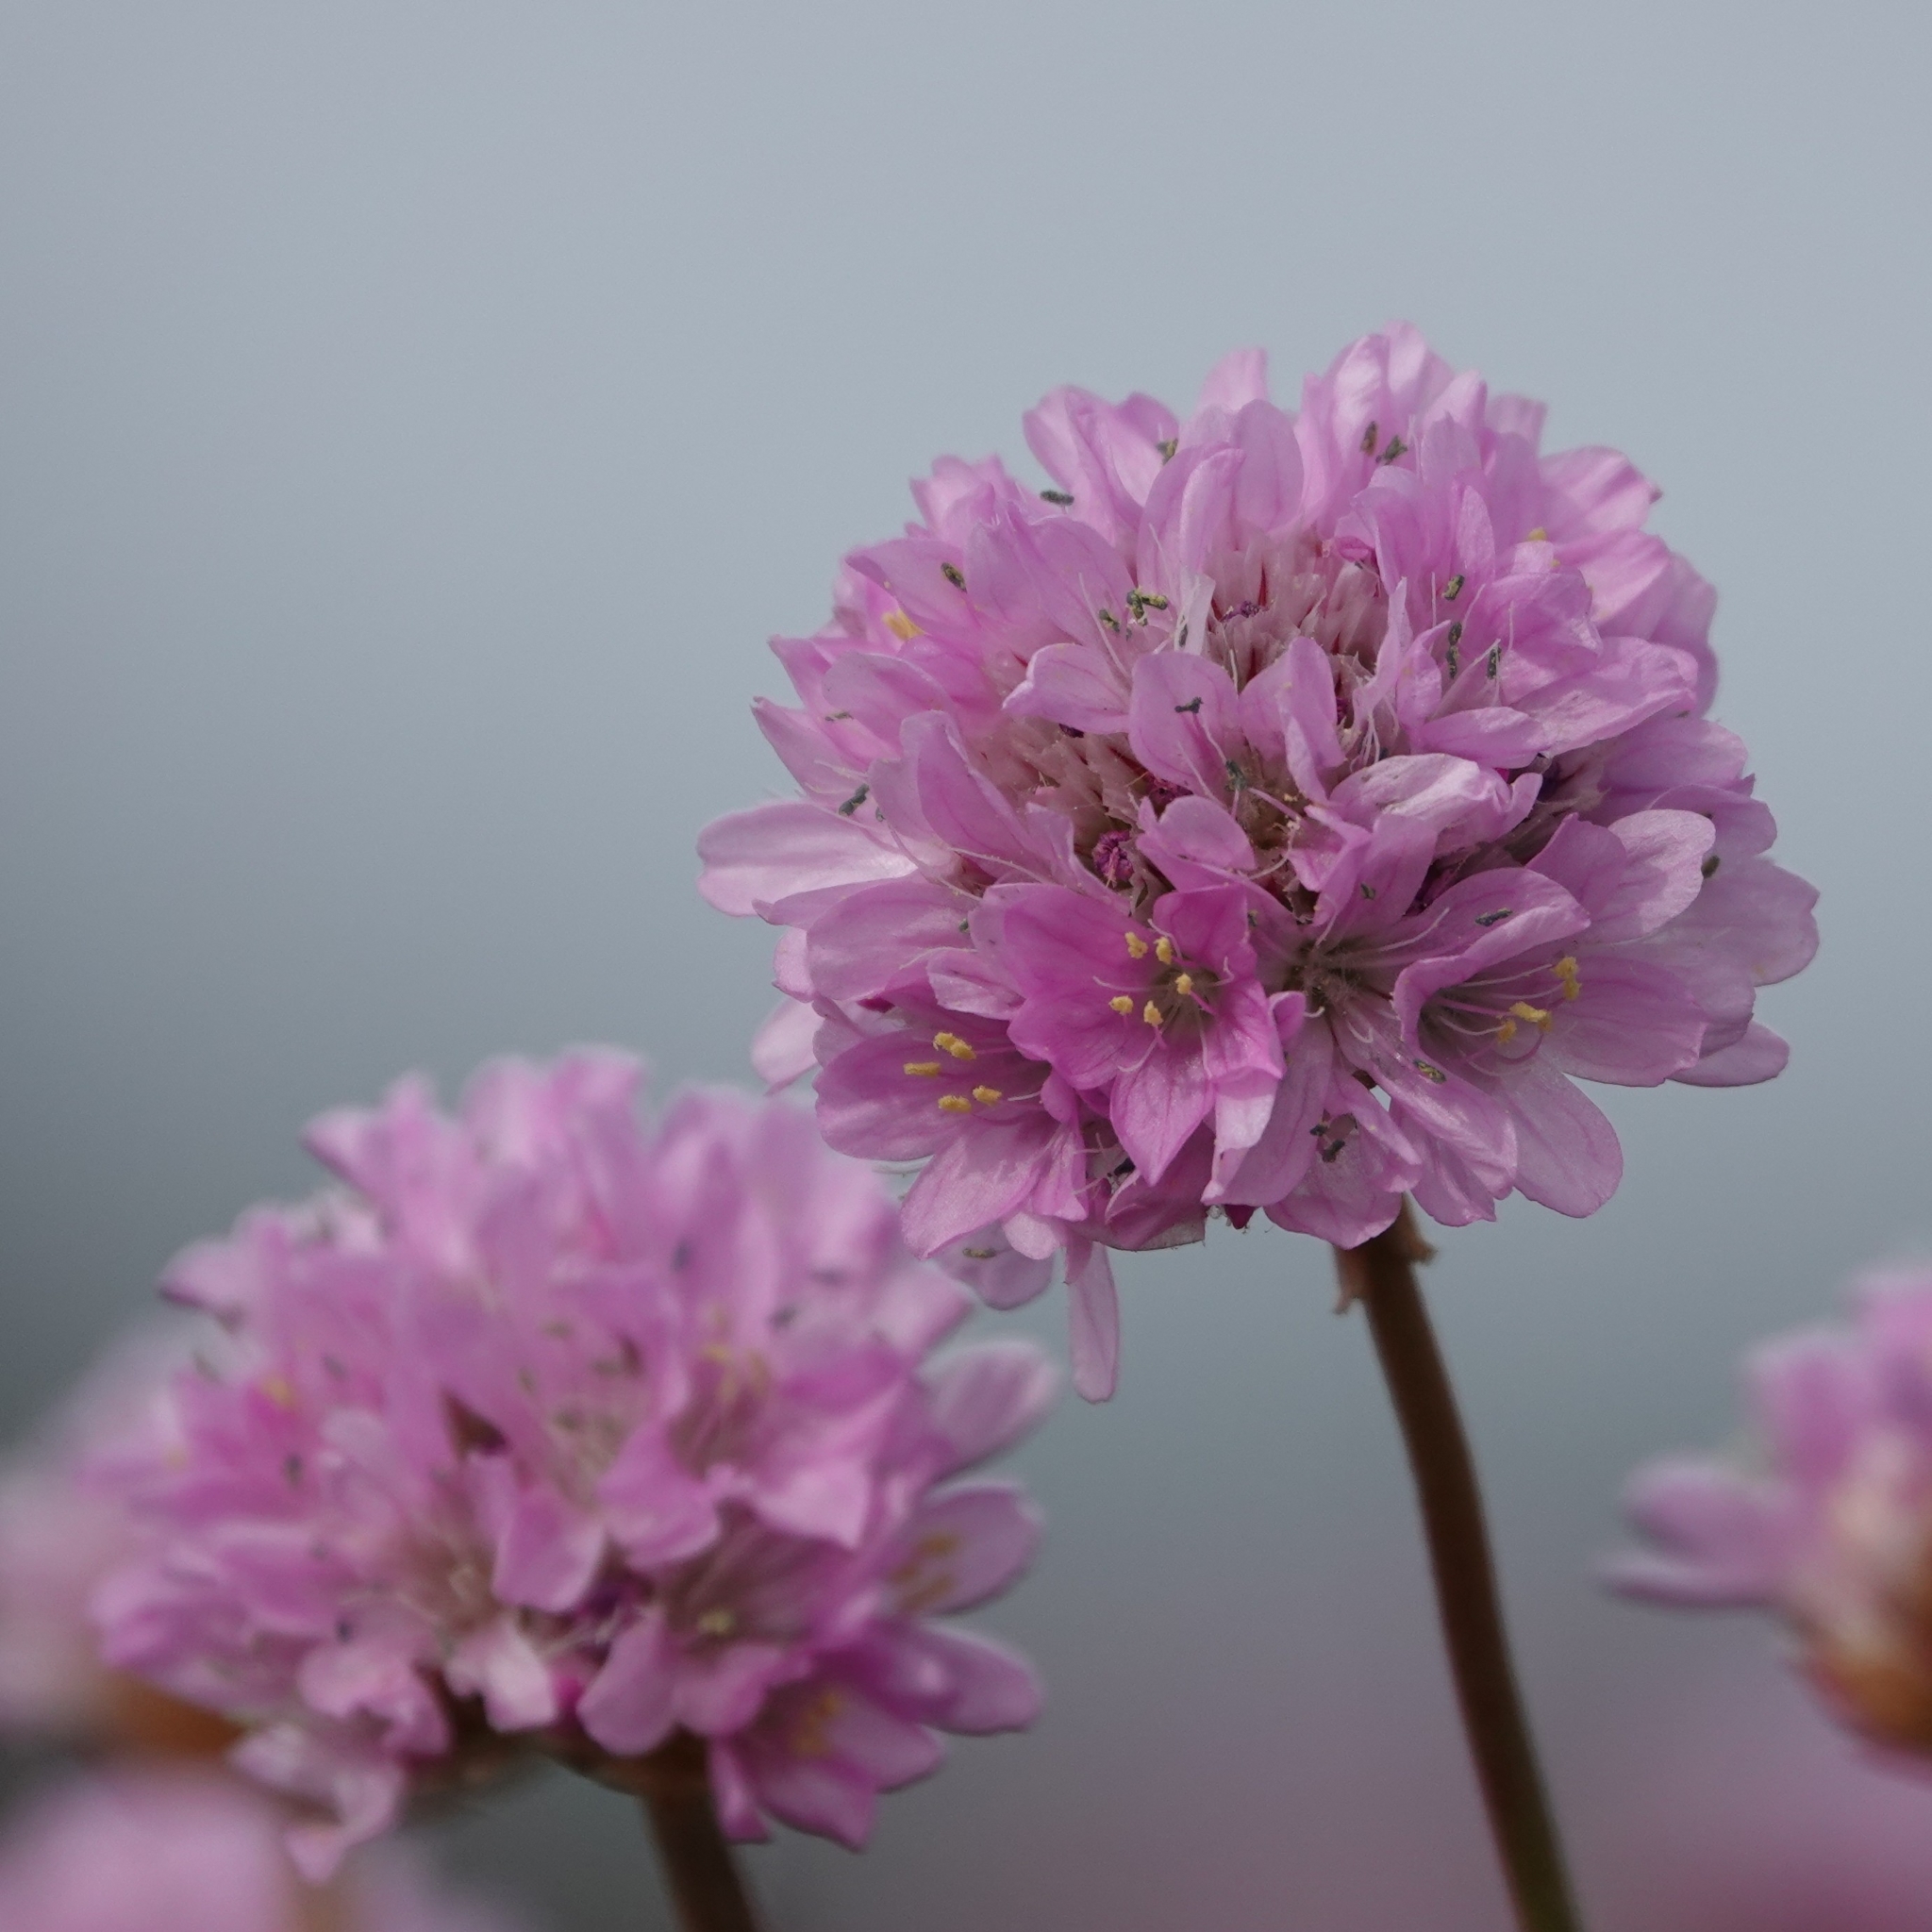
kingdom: Plantae
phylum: Tracheophyta
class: Magnoliopsida
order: Caryophyllales
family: Plumbaginaceae
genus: Armeria
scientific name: Armeria maritima
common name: Thrift
